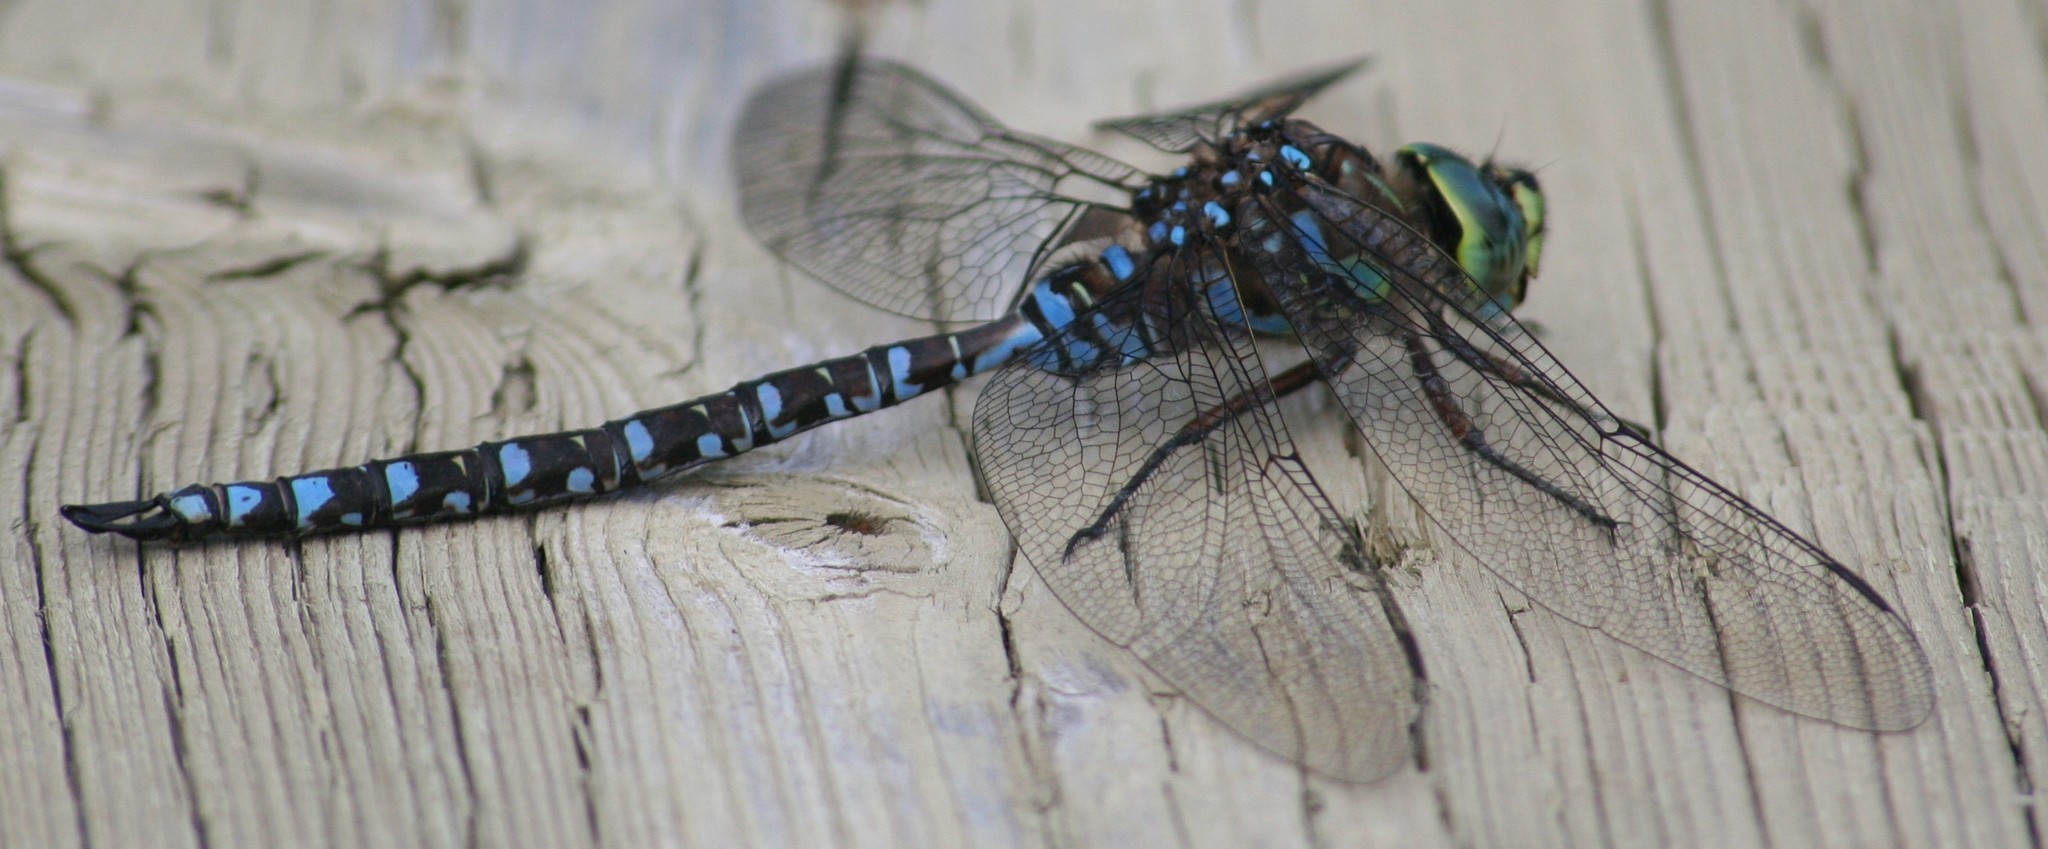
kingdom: Animalia
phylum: Arthropoda
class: Insecta
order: Odonata
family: Aeshnidae
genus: Aeshna
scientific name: Aeshna eremita
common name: Lake darner
